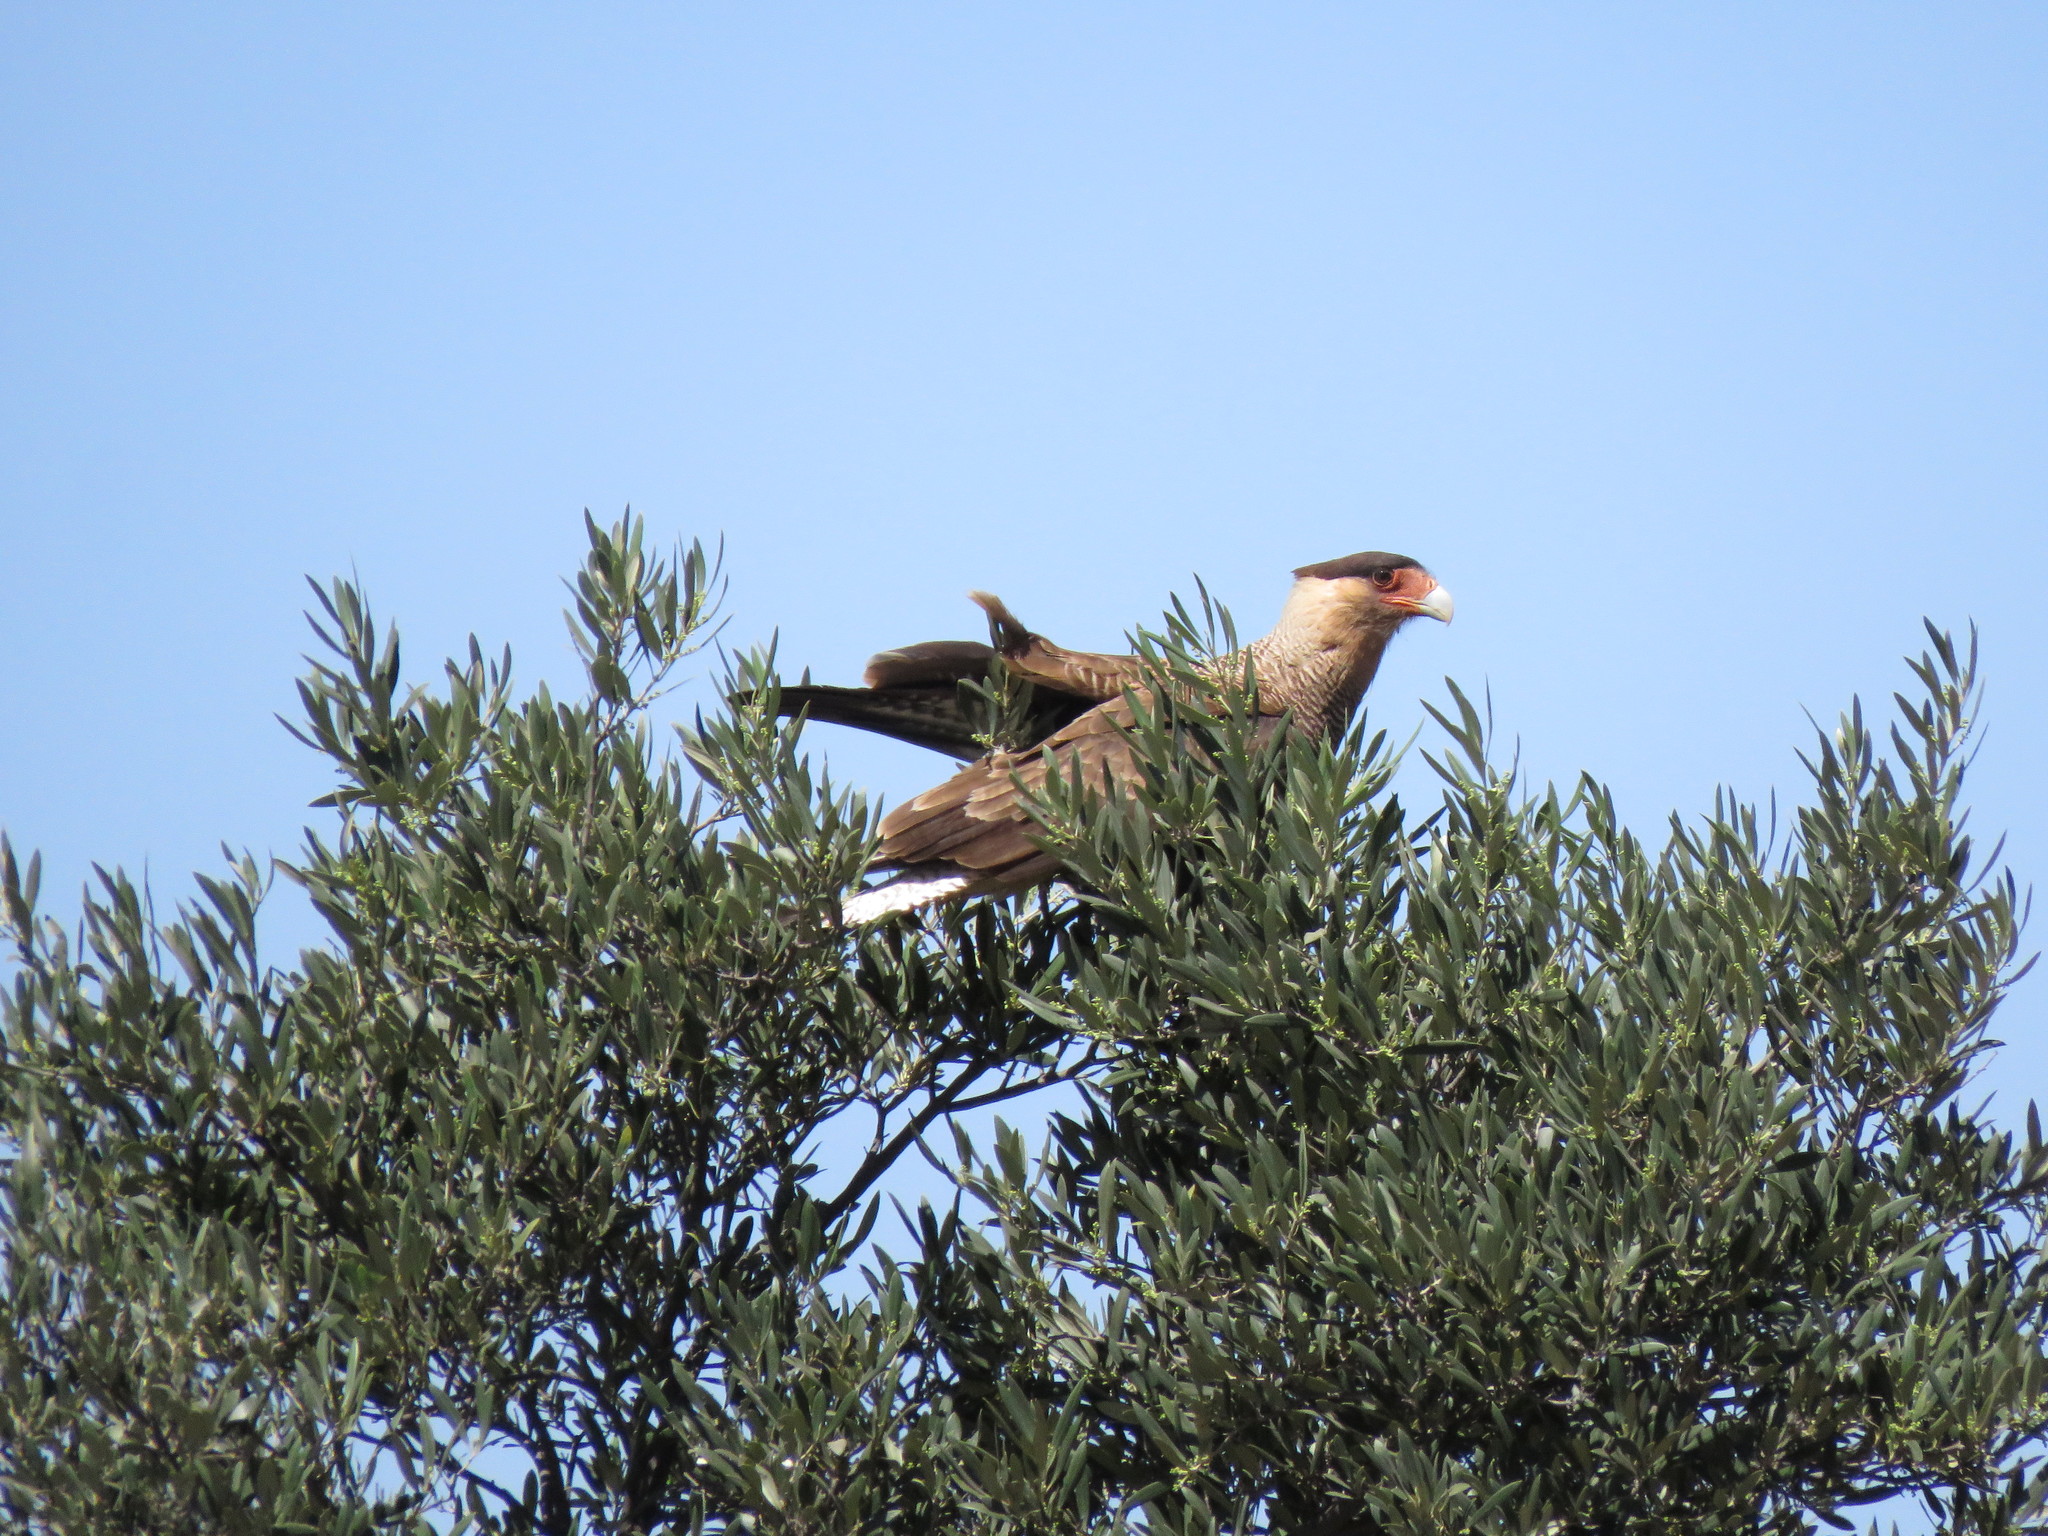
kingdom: Animalia
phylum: Chordata
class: Aves
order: Falconiformes
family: Falconidae
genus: Caracara
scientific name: Caracara plancus
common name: Southern caracara
